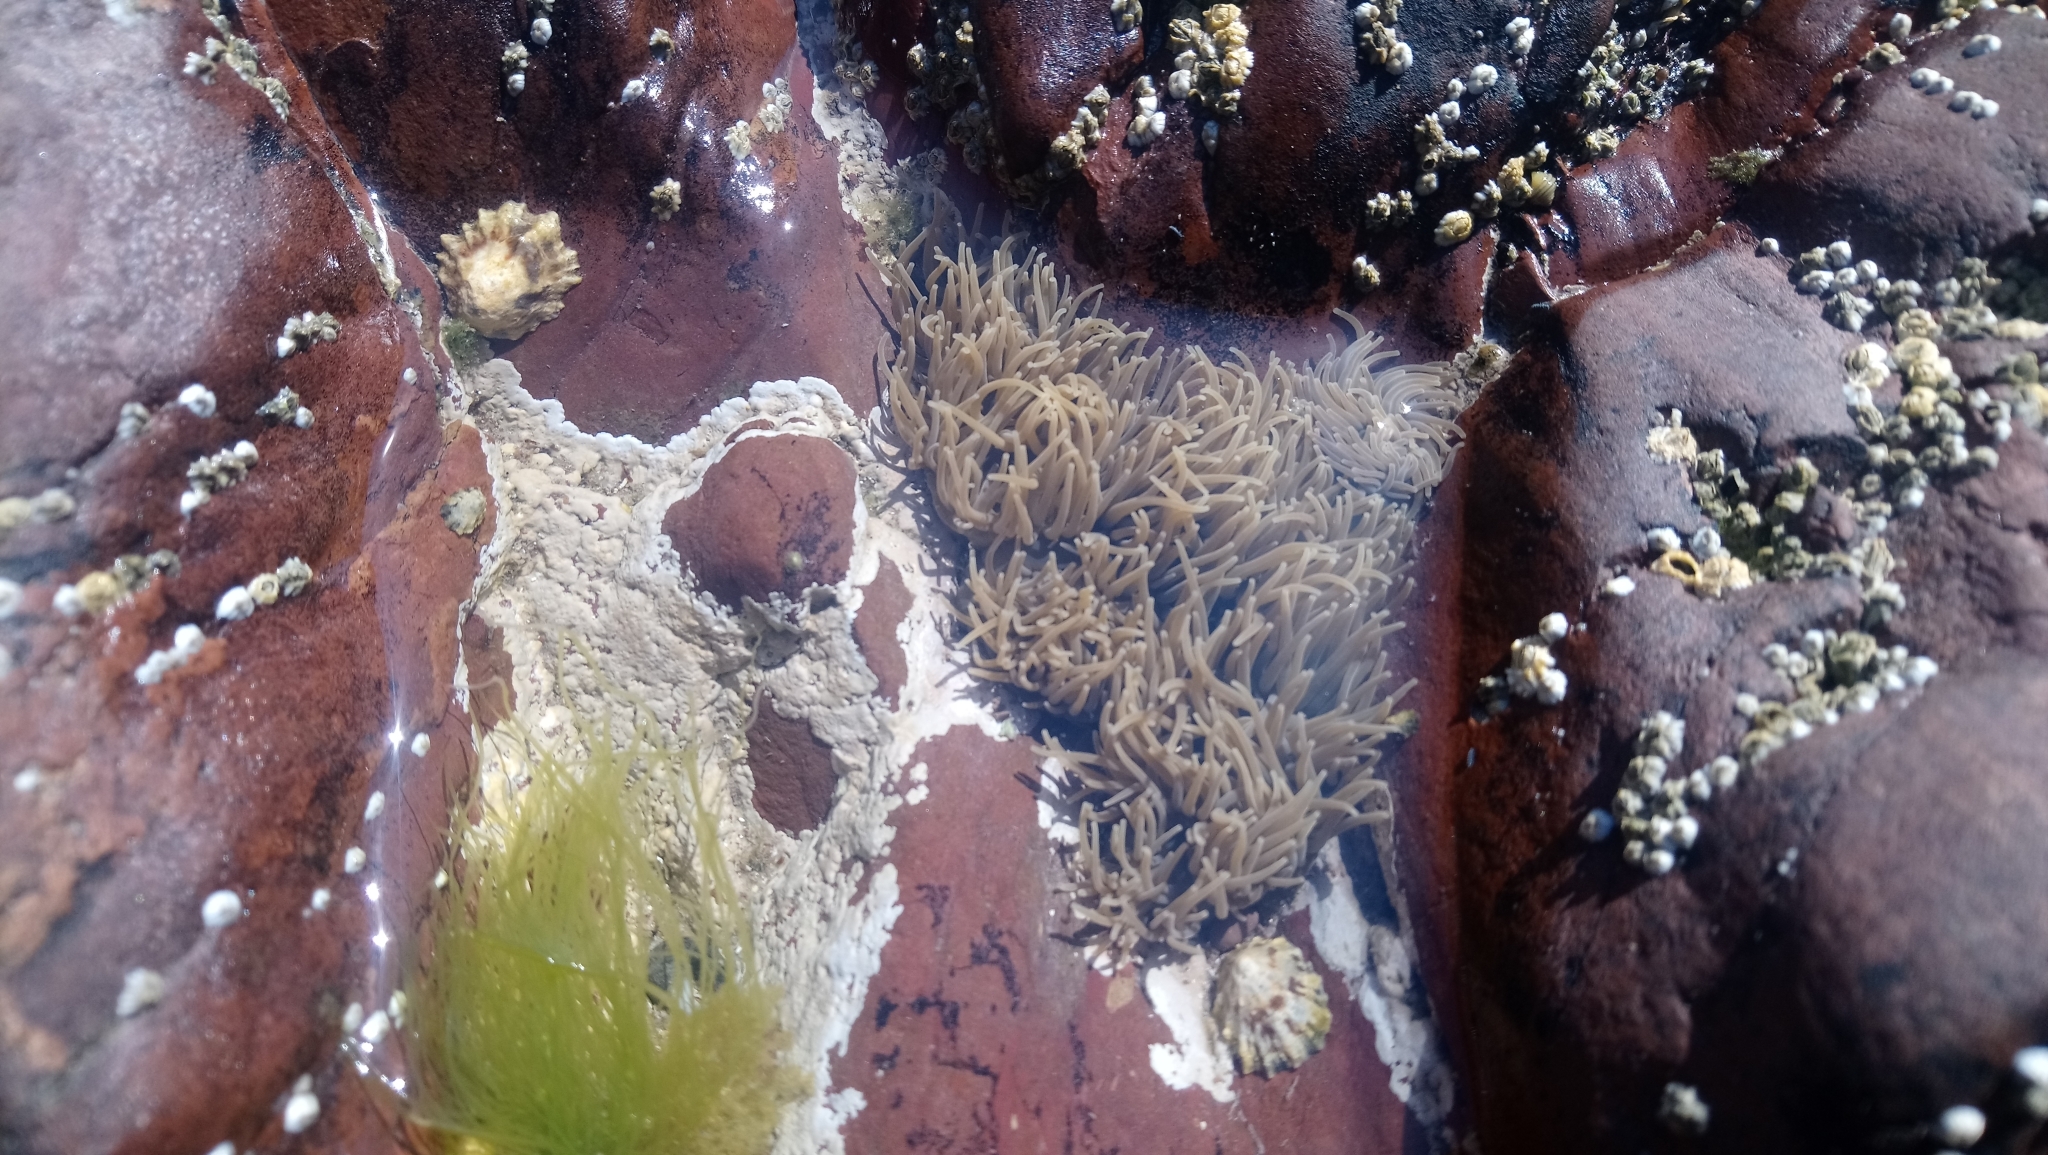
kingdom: Animalia
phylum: Cnidaria
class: Anthozoa
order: Actiniaria
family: Actiniidae
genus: Anemonia
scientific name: Anemonia viridis
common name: Snakelocks anemone
